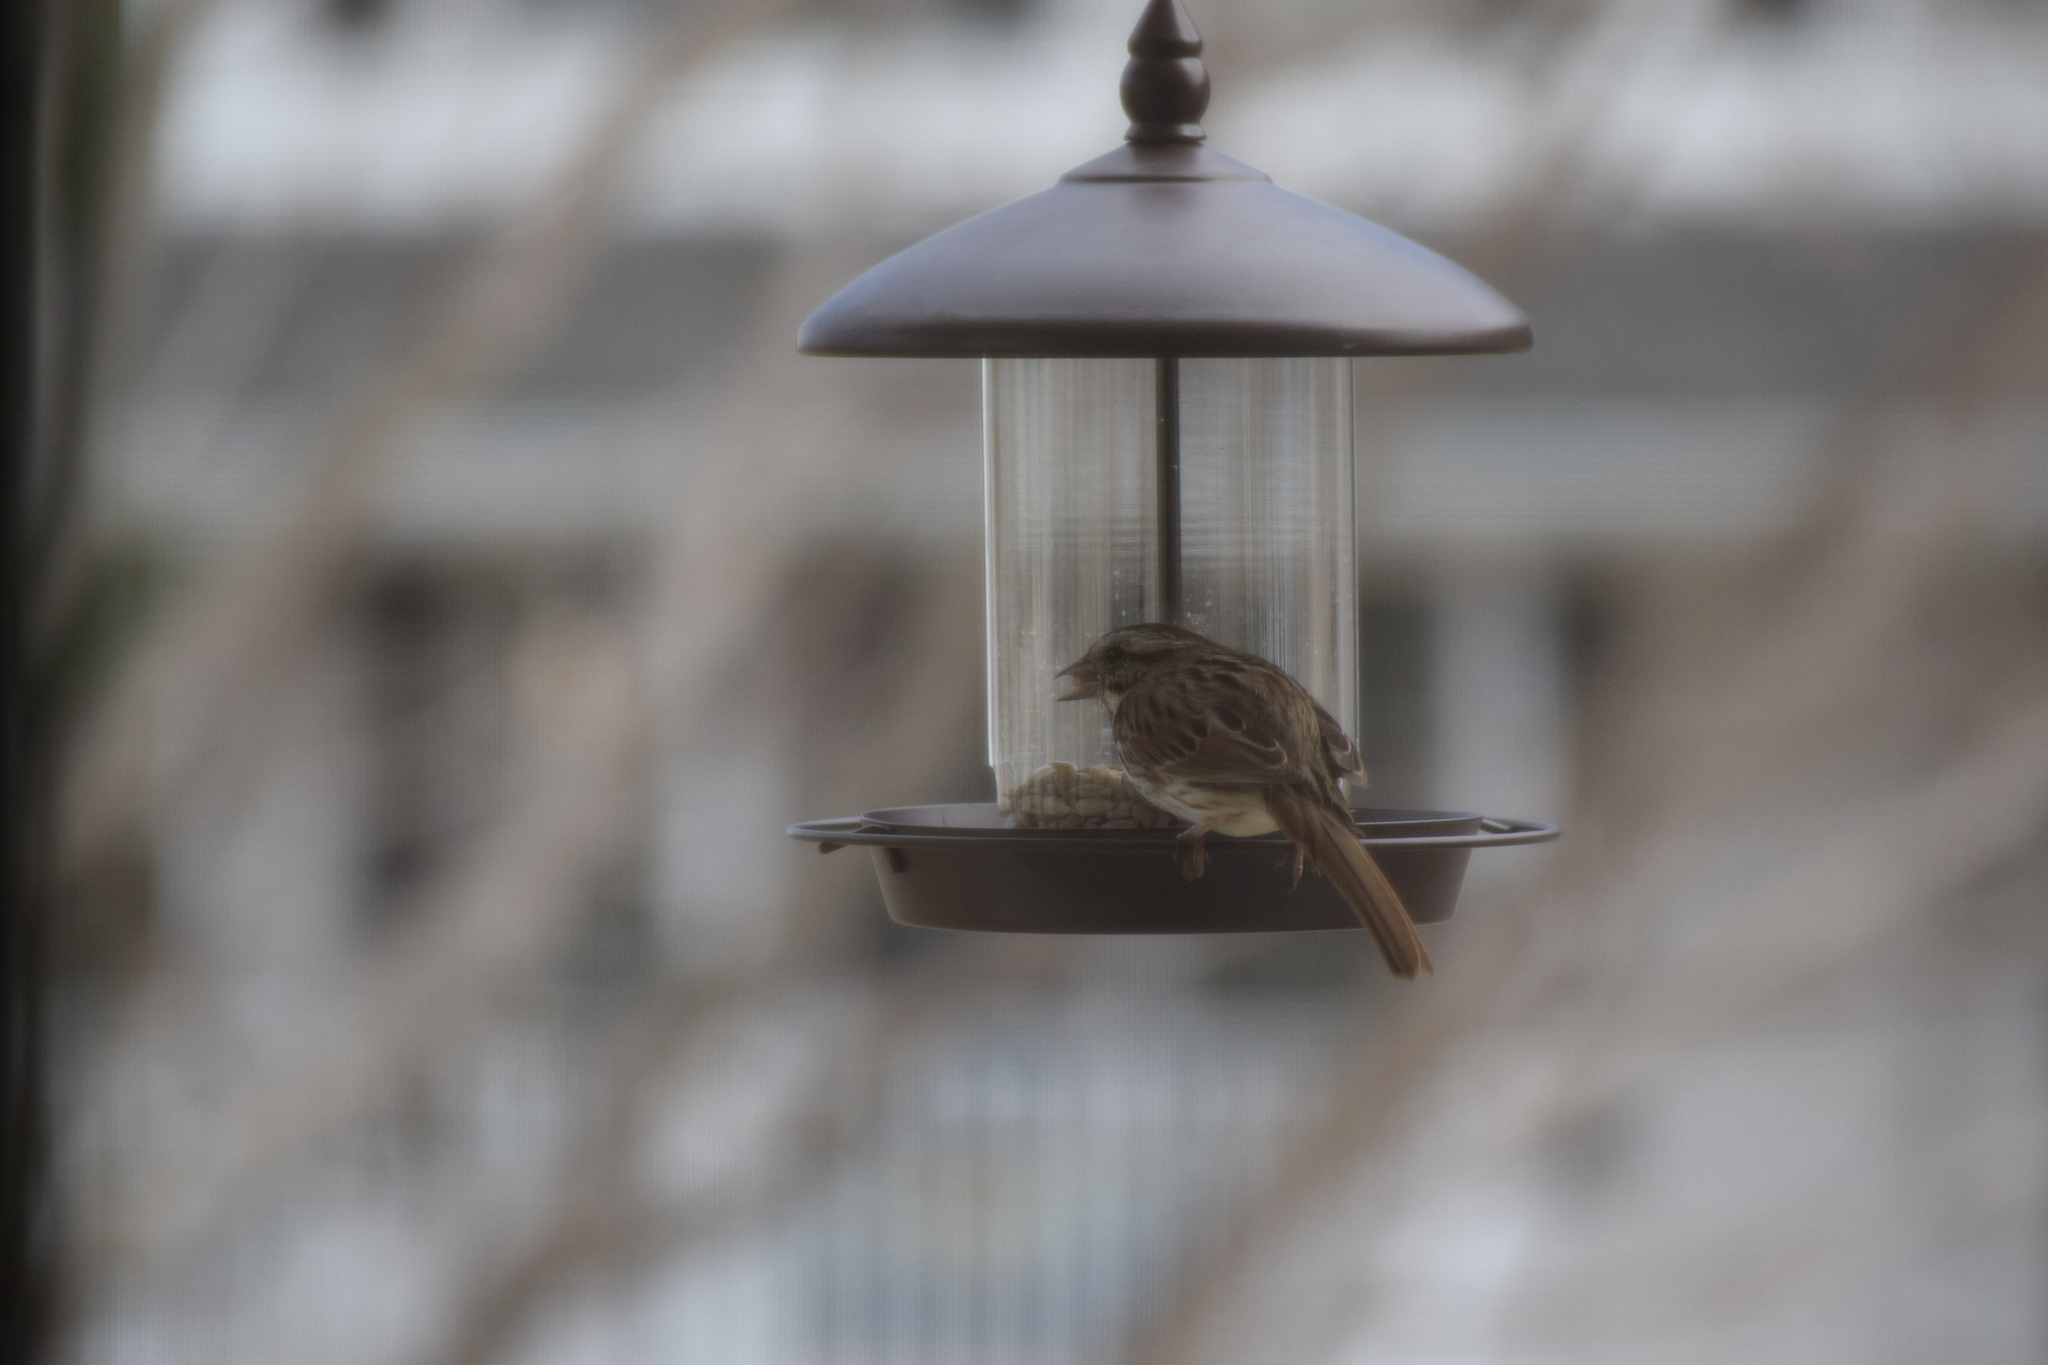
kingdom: Animalia
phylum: Chordata
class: Aves
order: Passeriformes
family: Passerellidae
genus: Melospiza
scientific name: Melospiza melodia
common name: Song sparrow
